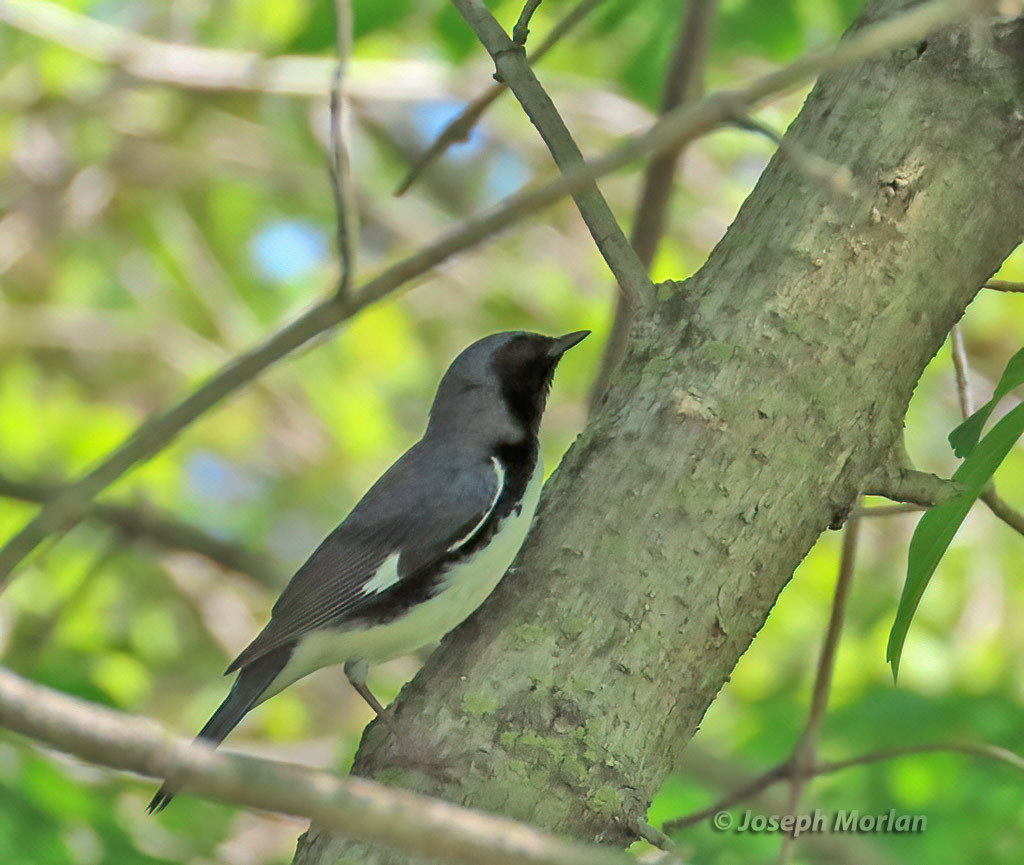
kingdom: Animalia
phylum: Chordata
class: Aves
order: Passeriformes
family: Parulidae
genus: Setophaga
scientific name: Setophaga caerulescens
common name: Black-throated blue warbler
